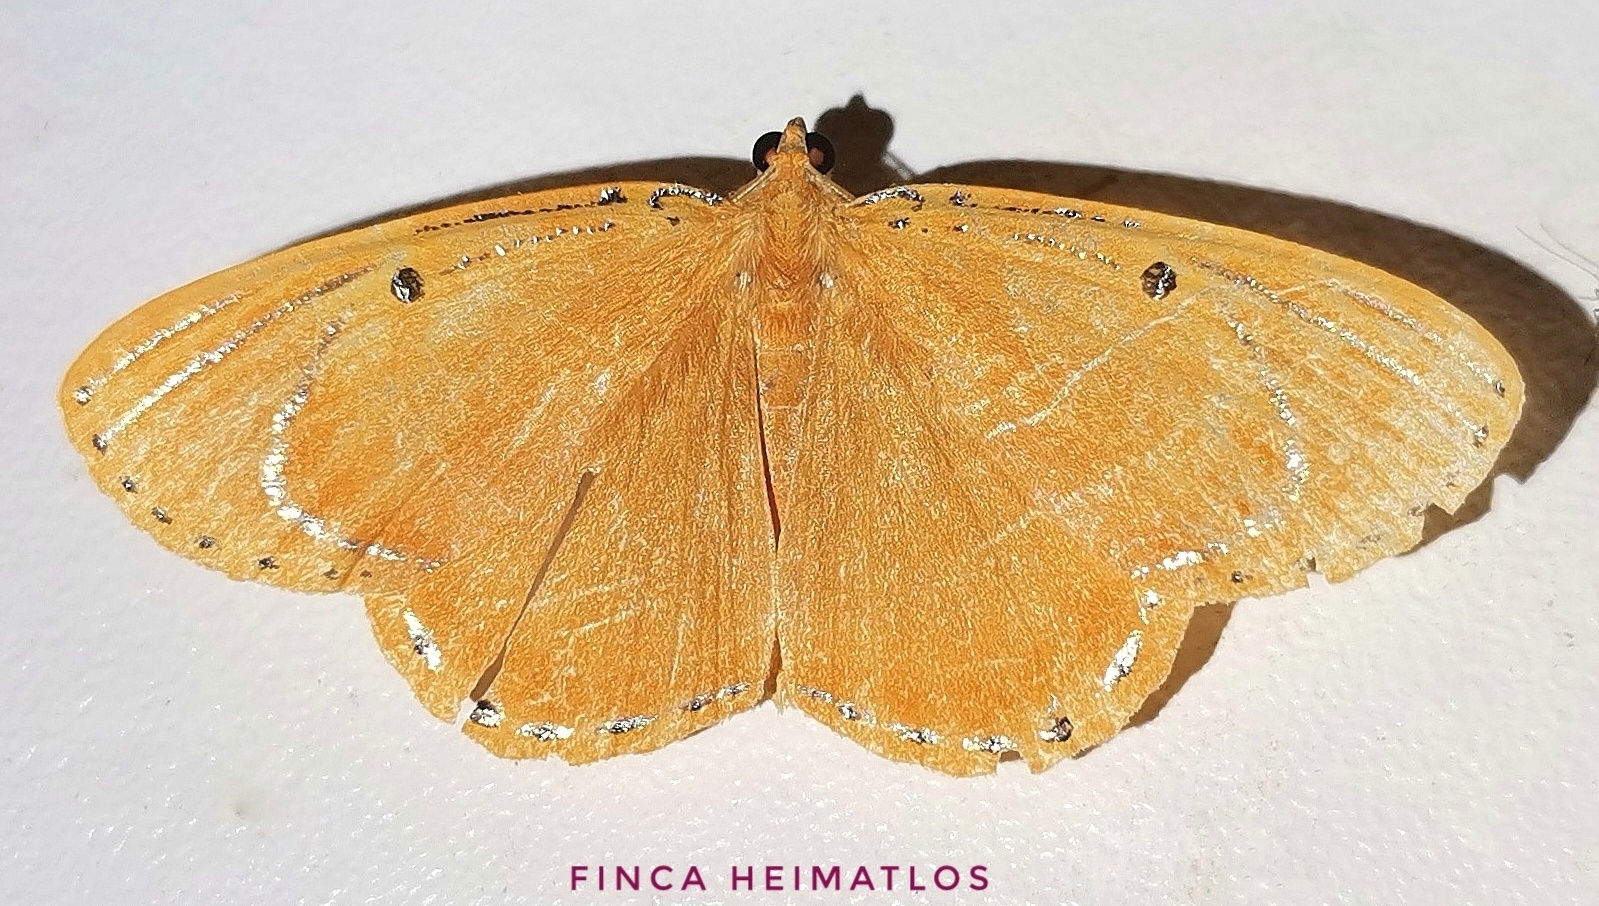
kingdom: Animalia
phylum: Arthropoda
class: Insecta
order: Lepidoptera
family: Geometridae
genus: Palyas
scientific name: Palyas divitaria
